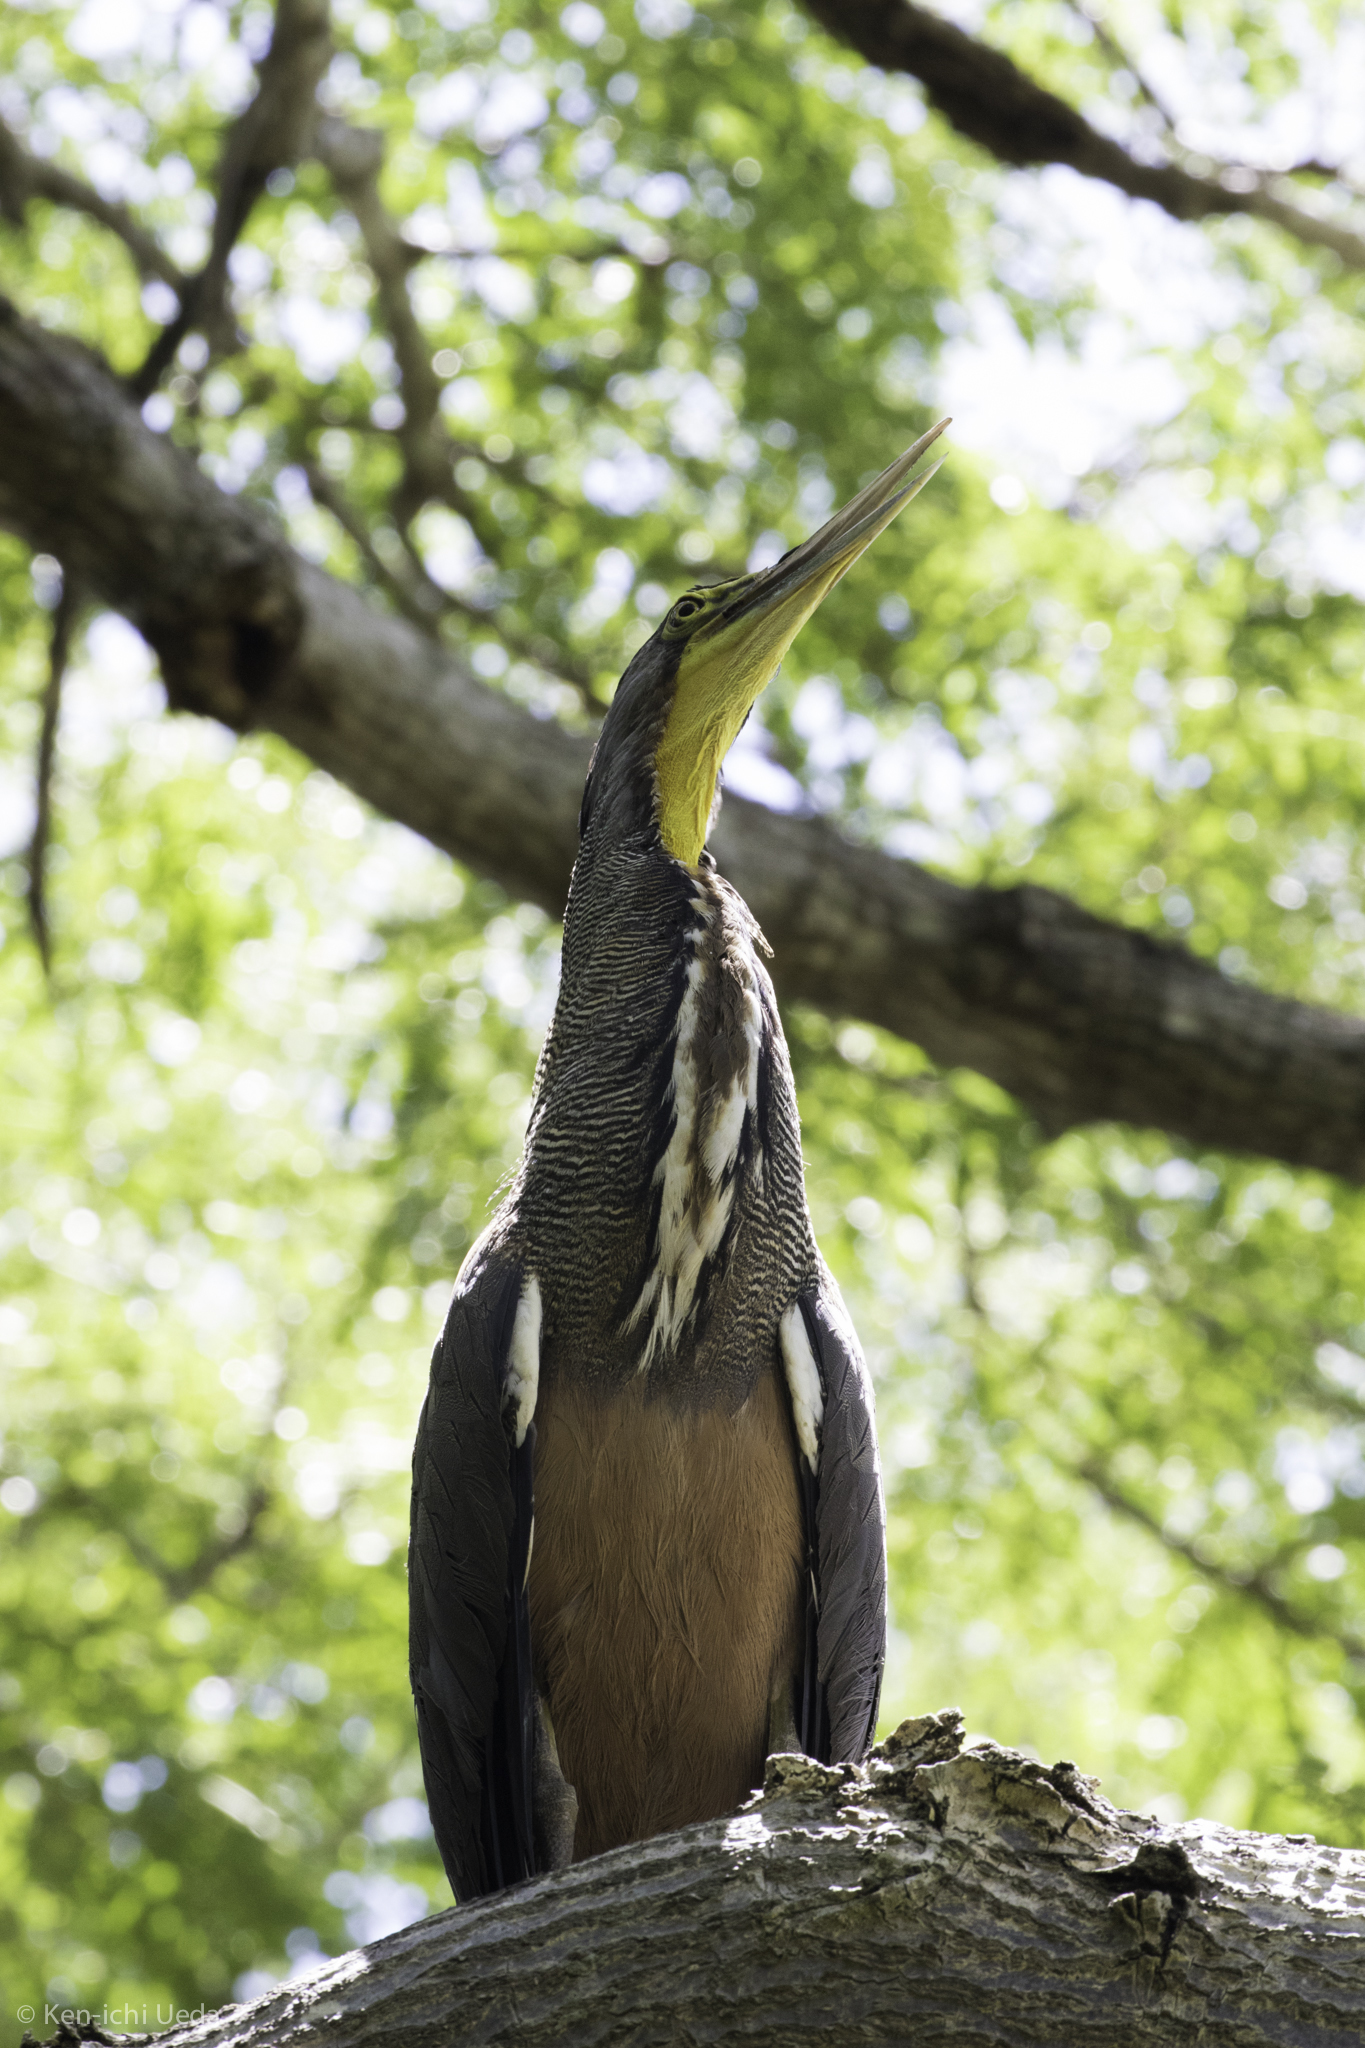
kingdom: Animalia
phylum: Chordata
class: Aves
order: Pelecaniformes
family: Ardeidae
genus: Tigrisoma
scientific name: Tigrisoma mexicanum
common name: Bare-throated tiger-heron
